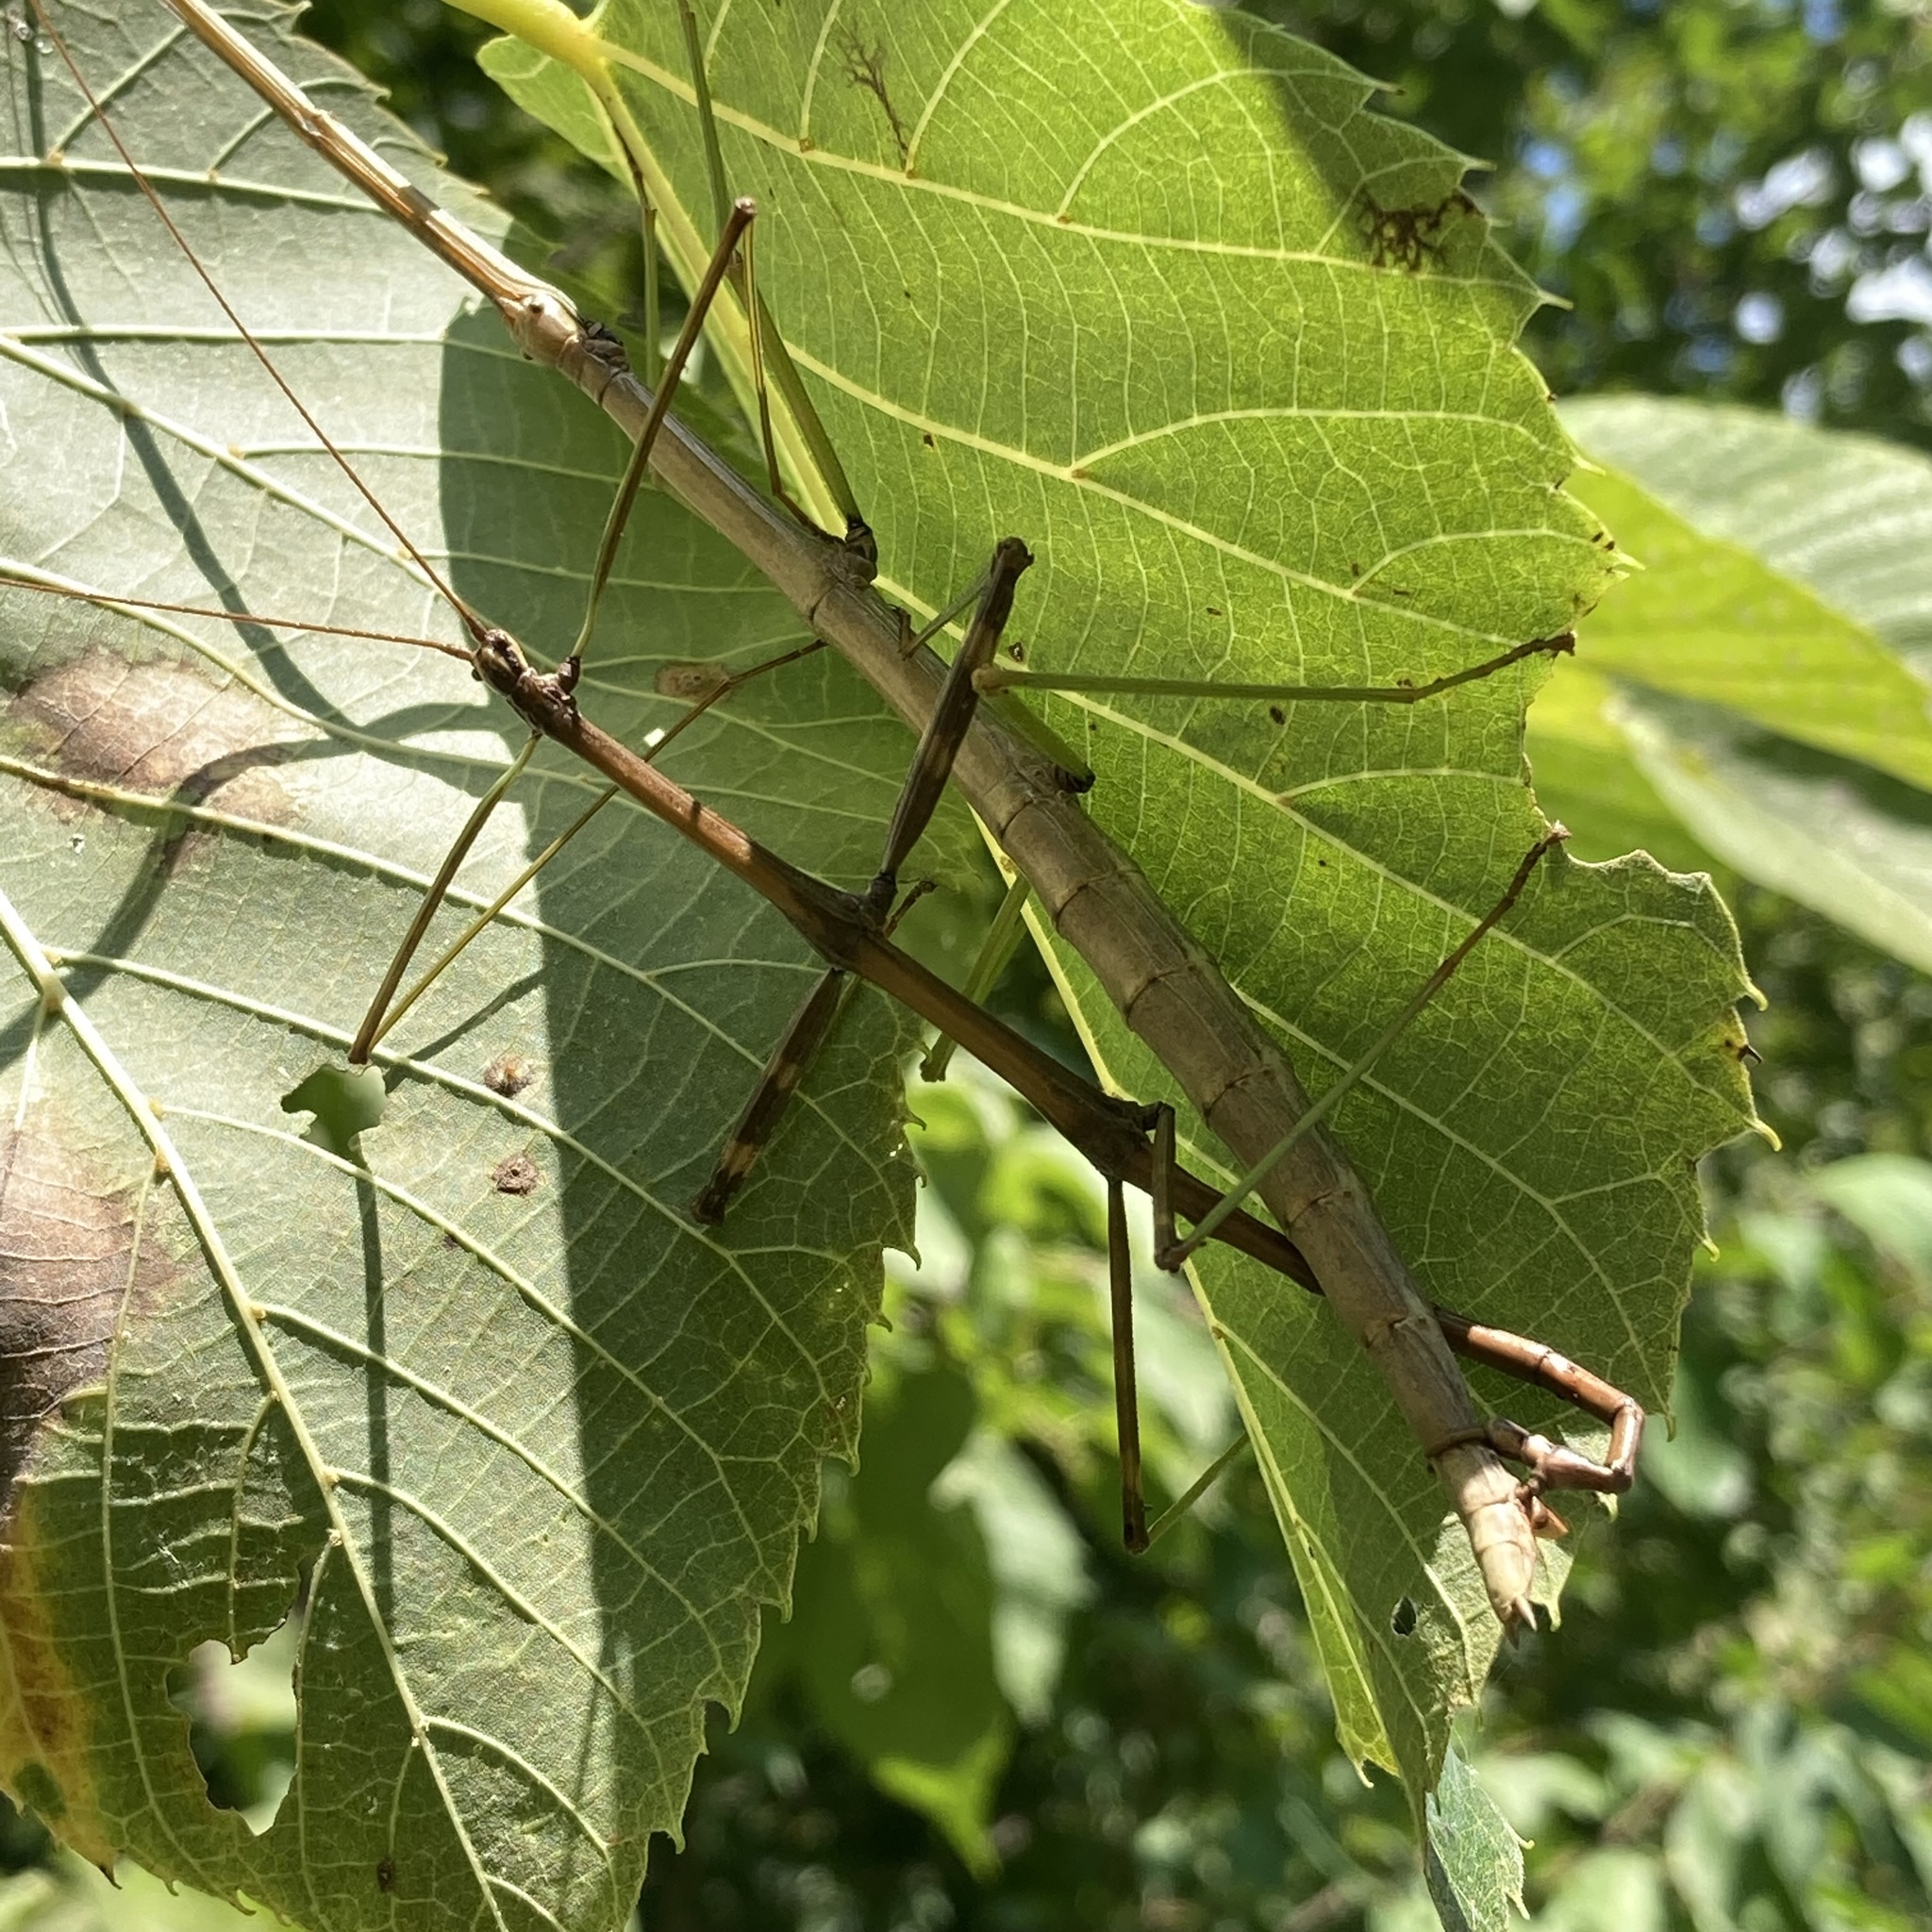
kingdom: Animalia
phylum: Arthropoda
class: Insecta
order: Phasmida
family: Diapheromeridae
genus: Diapheromera
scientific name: Diapheromera femorata
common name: Common american walkingstick
